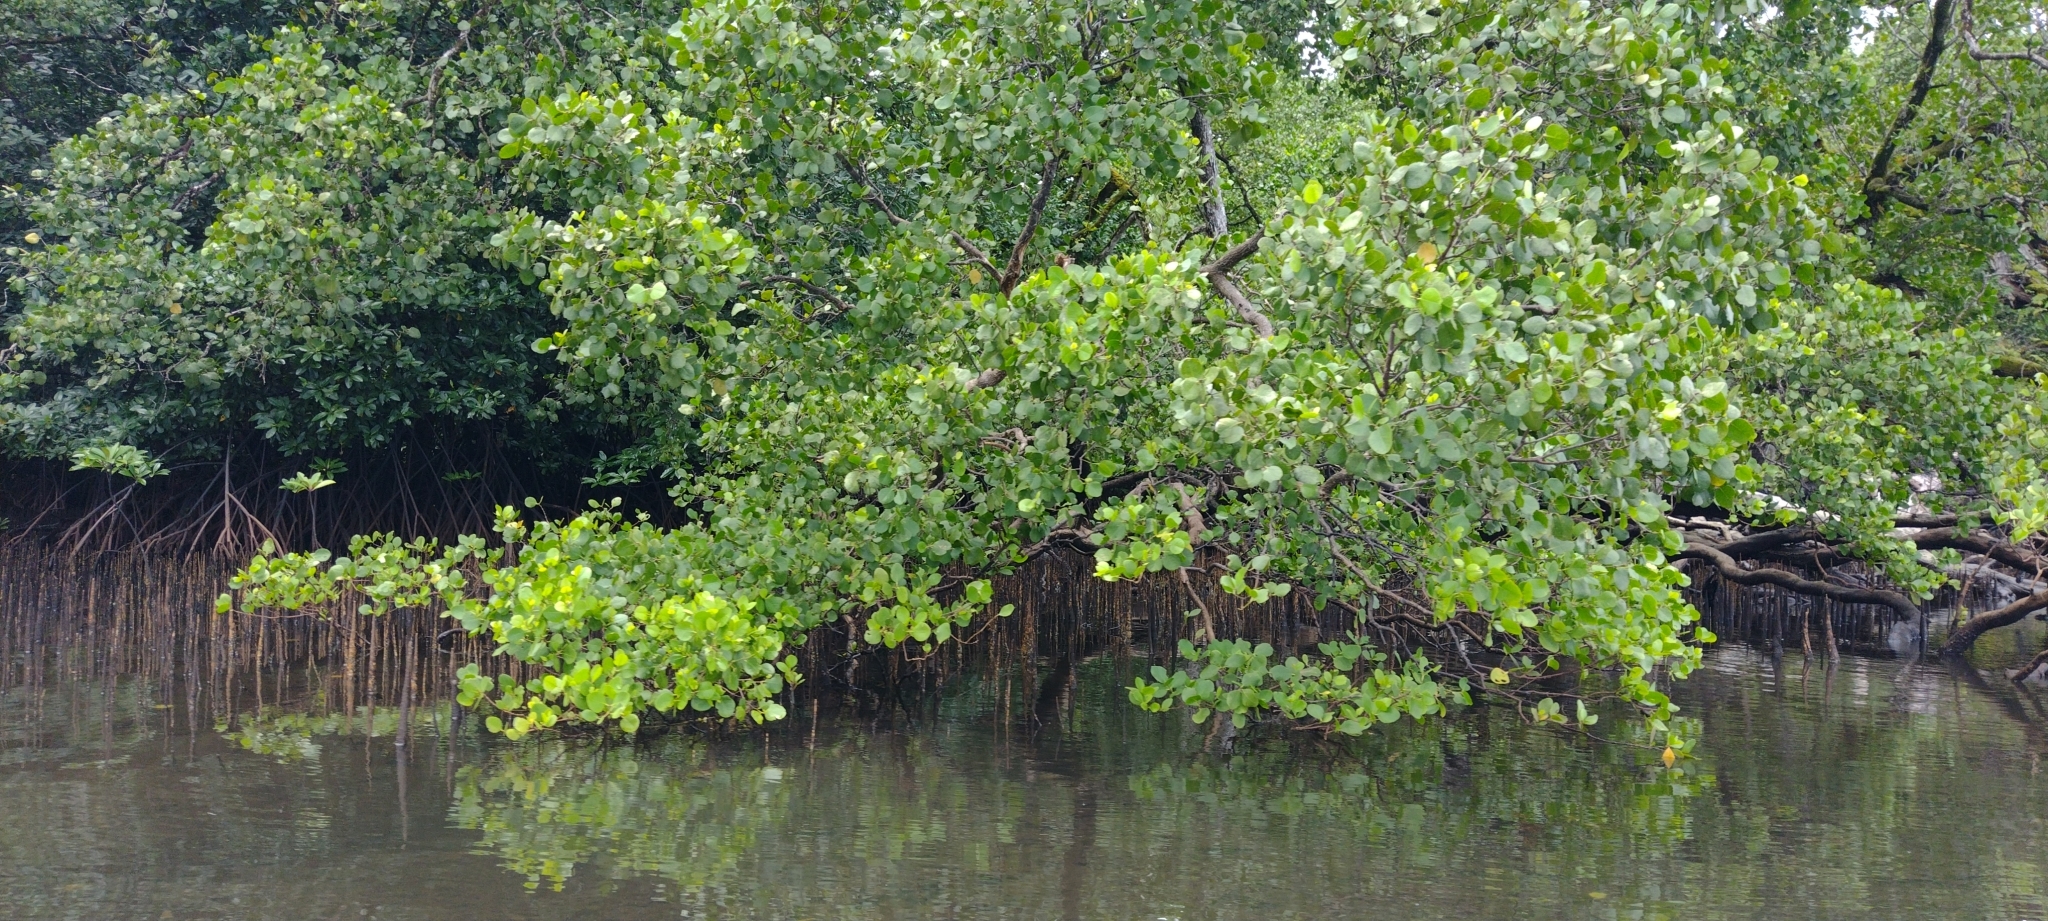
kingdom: Plantae
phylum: Tracheophyta
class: Magnoliopsida
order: Myrtales
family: Lythraceae
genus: Sonneratia
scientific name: Sonneratia alba
